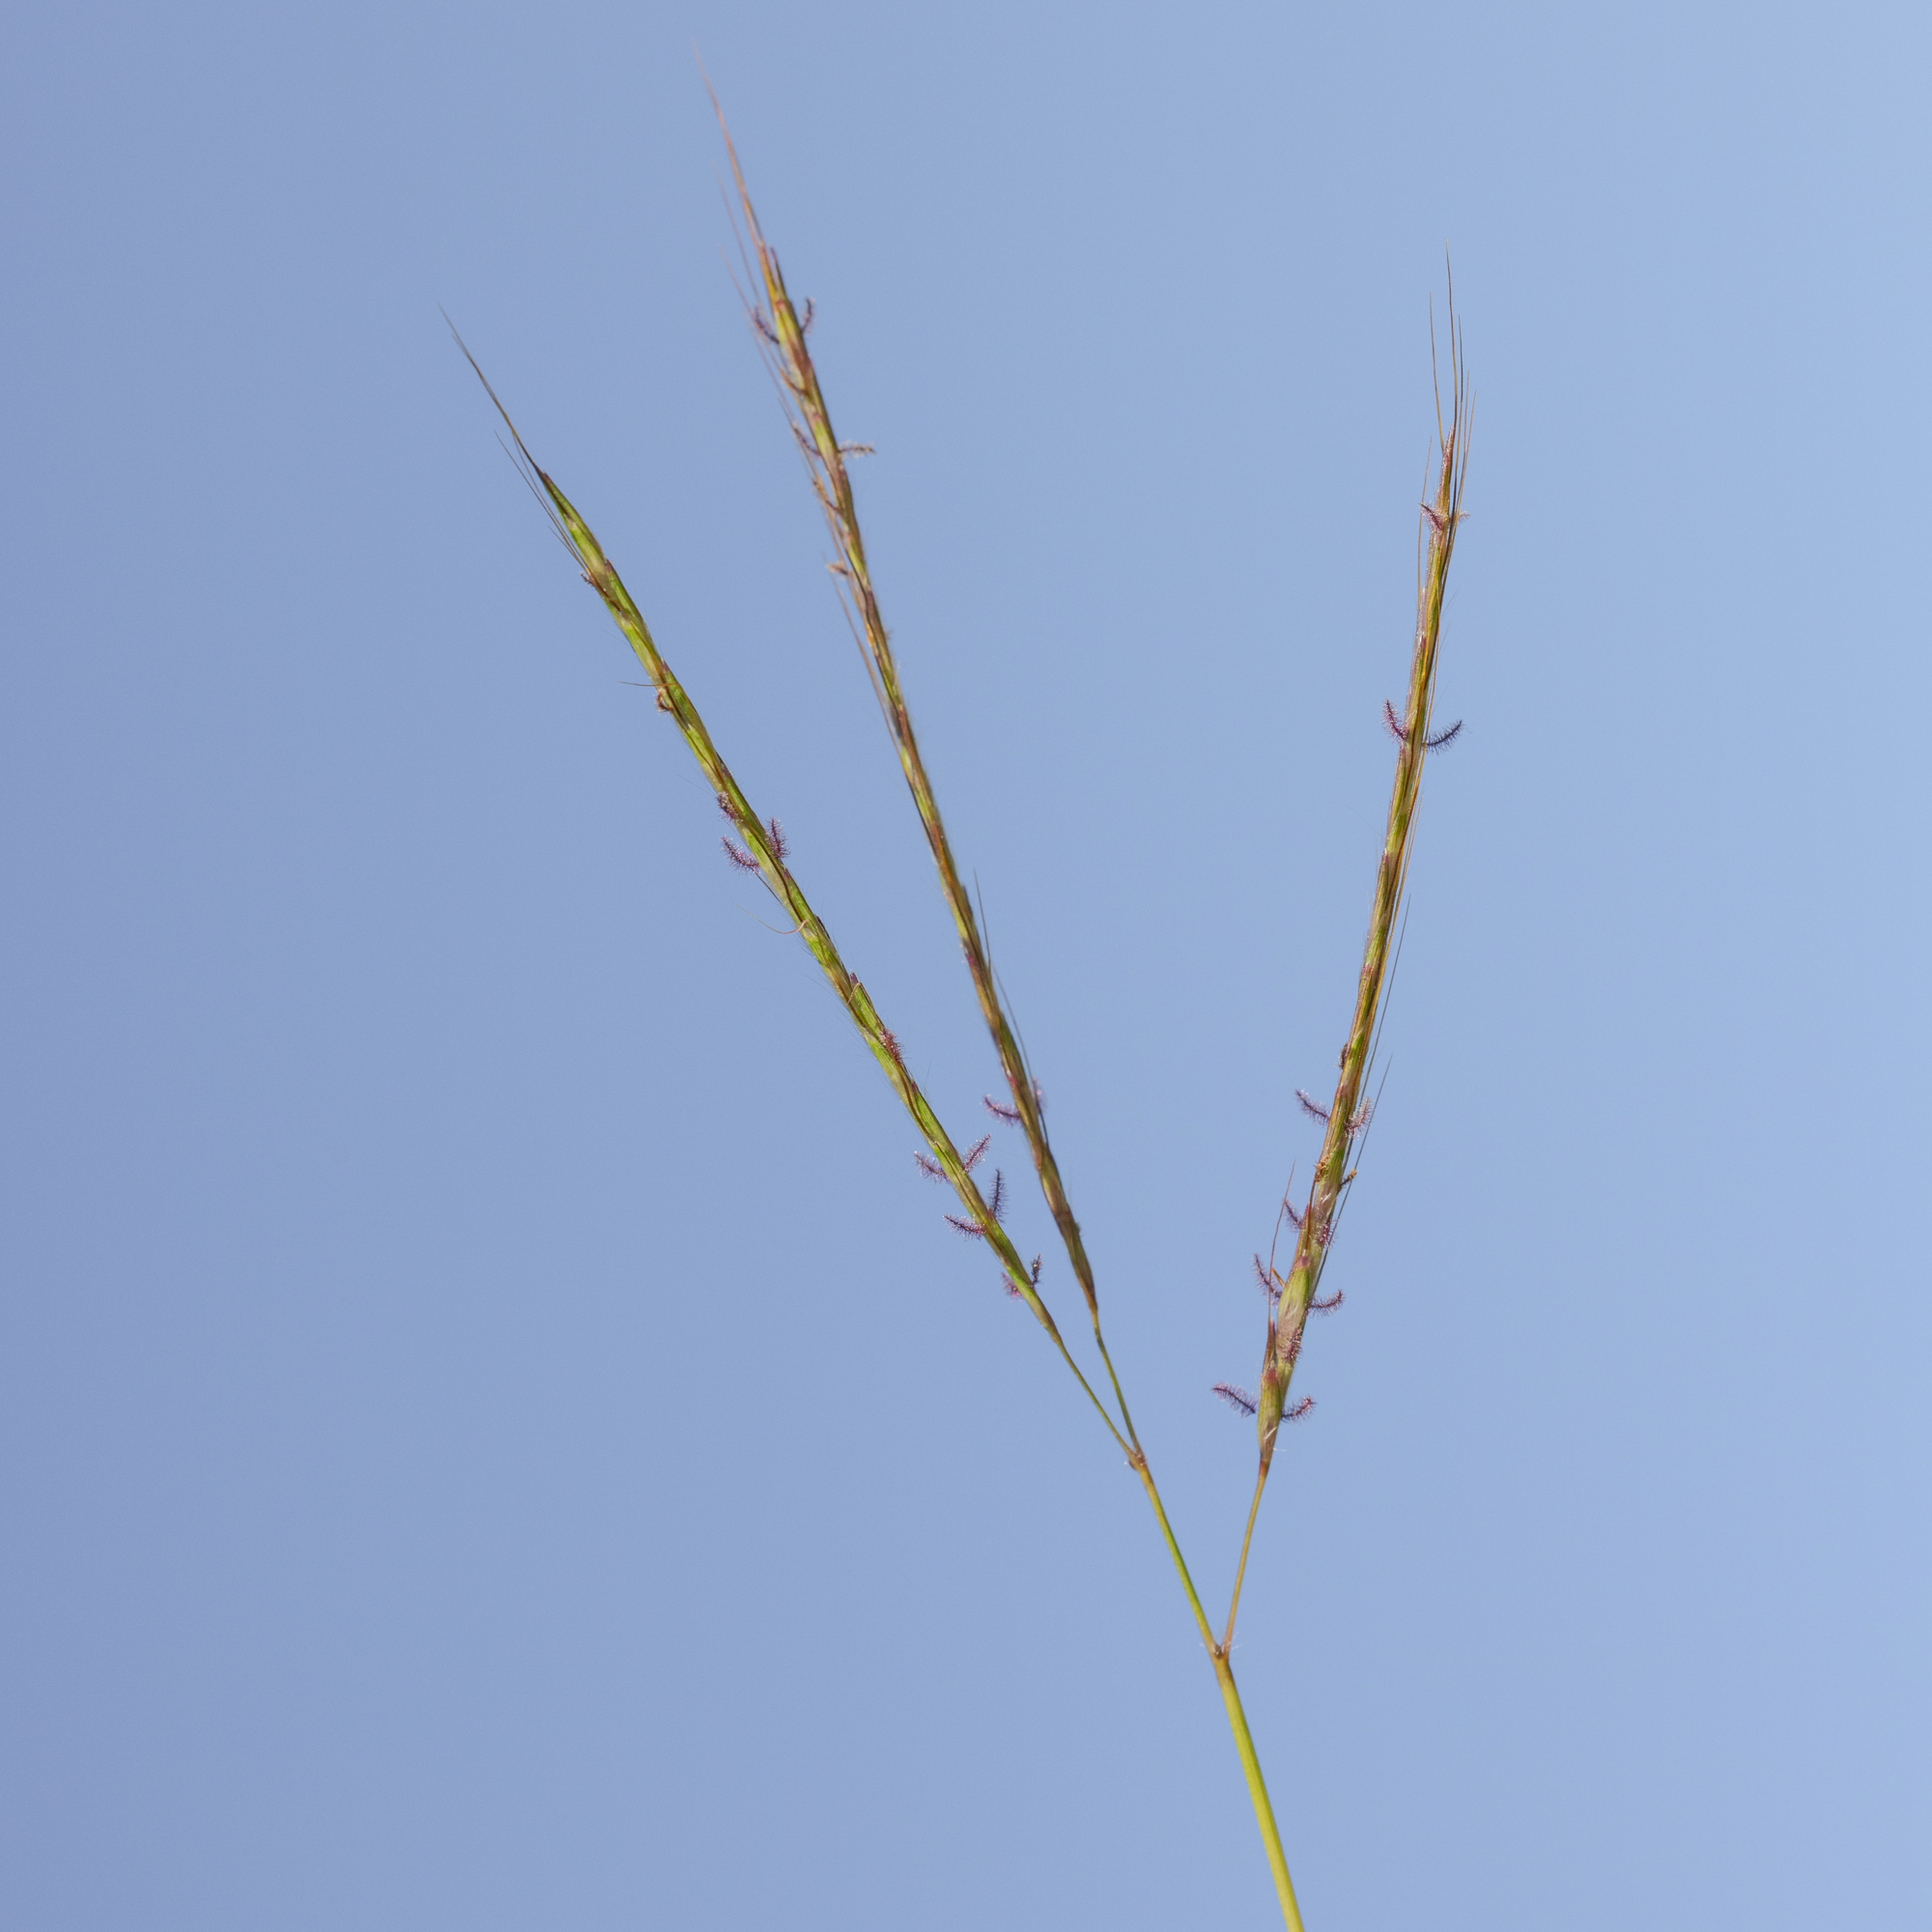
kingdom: Plantae
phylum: Tracheophyta
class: Liliopsida
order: Poales
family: Poaceae
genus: Bothriochloa
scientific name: Bothriochloa ischaemum
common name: Yellow bluestem
